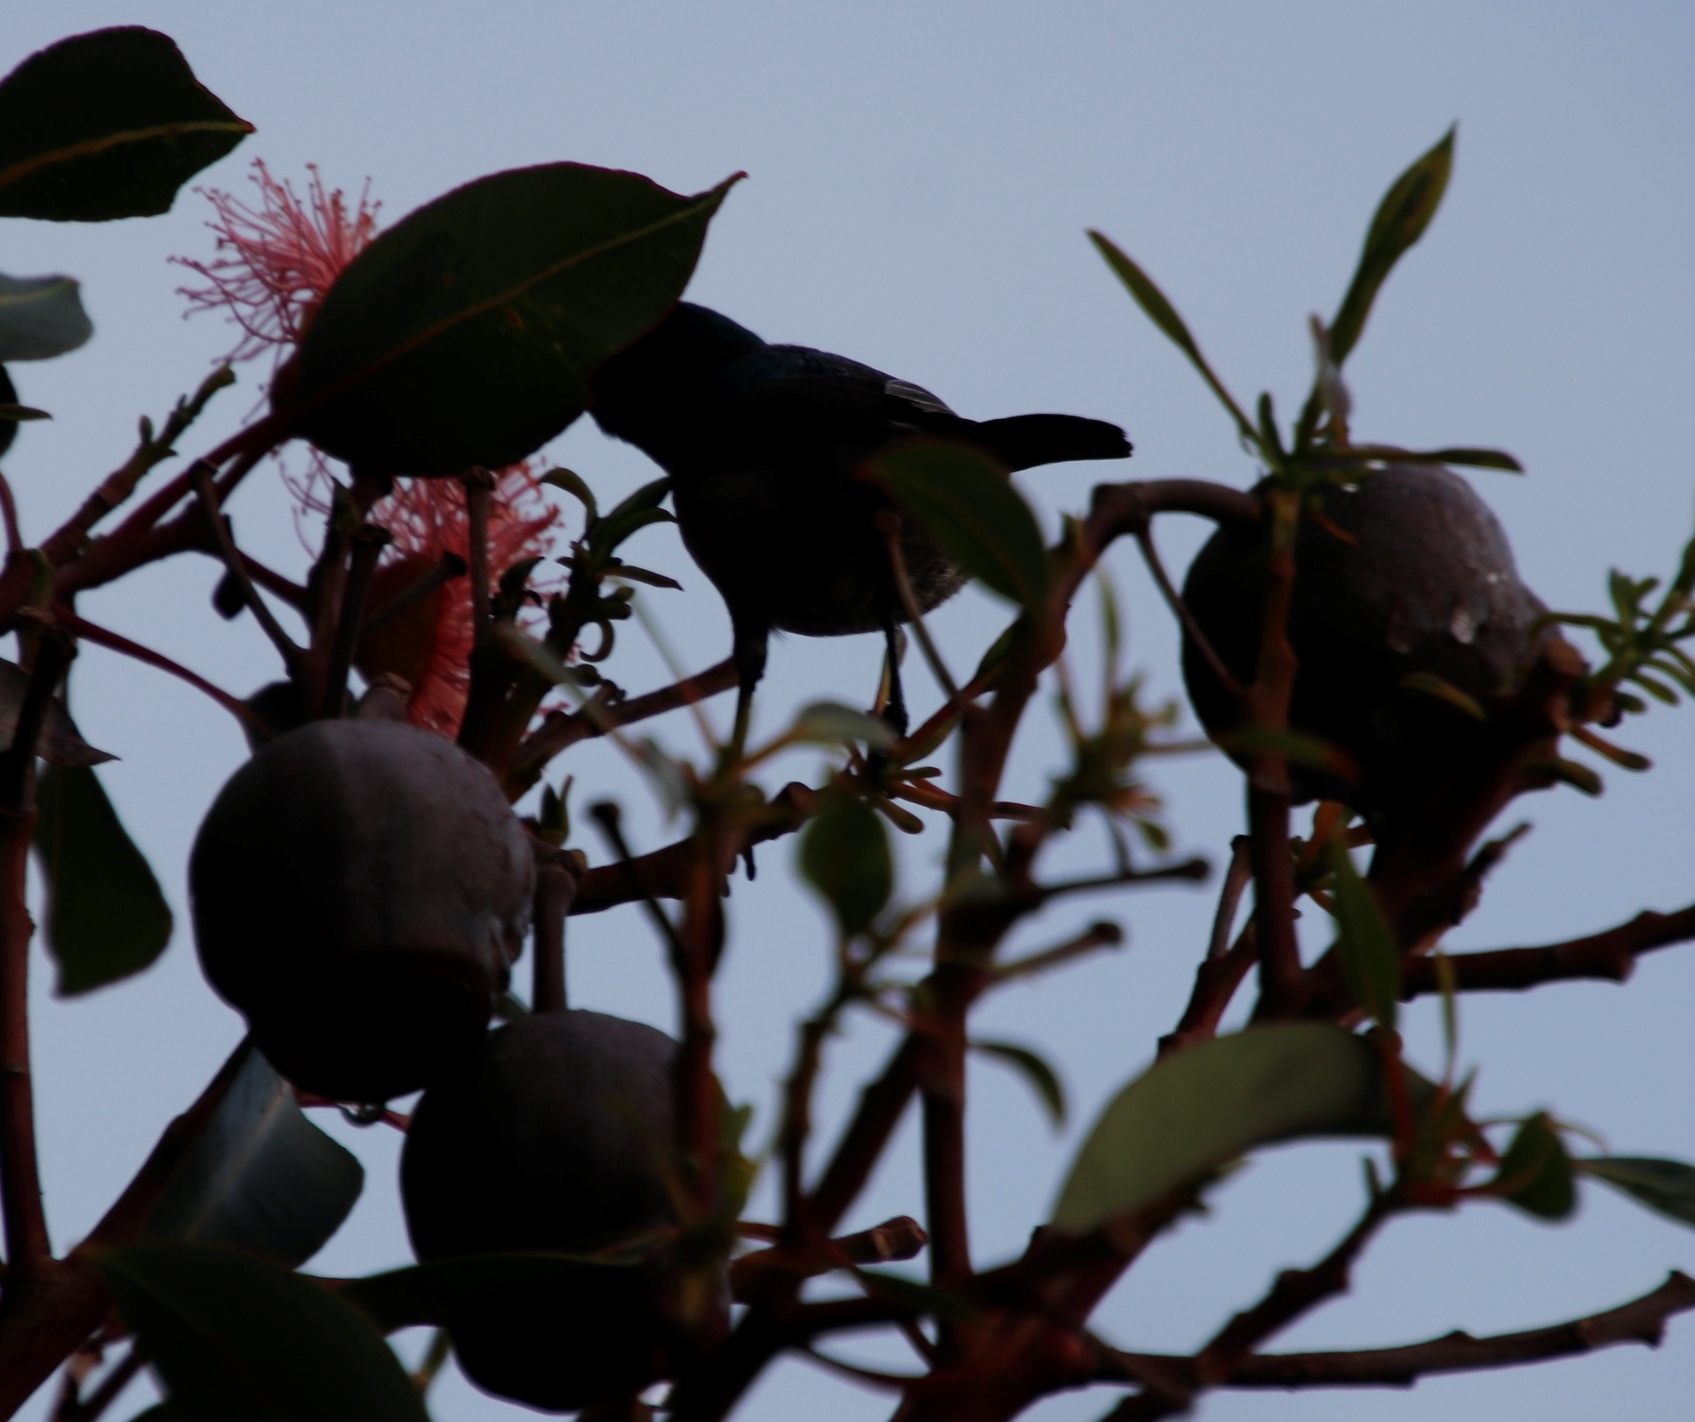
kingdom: Animalia
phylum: Chordata
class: Aves
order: Passeriformes
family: Nectariniidae
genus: Cinnyris
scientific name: Cinnyris chalybeus
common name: Southern double-collared sunbird
